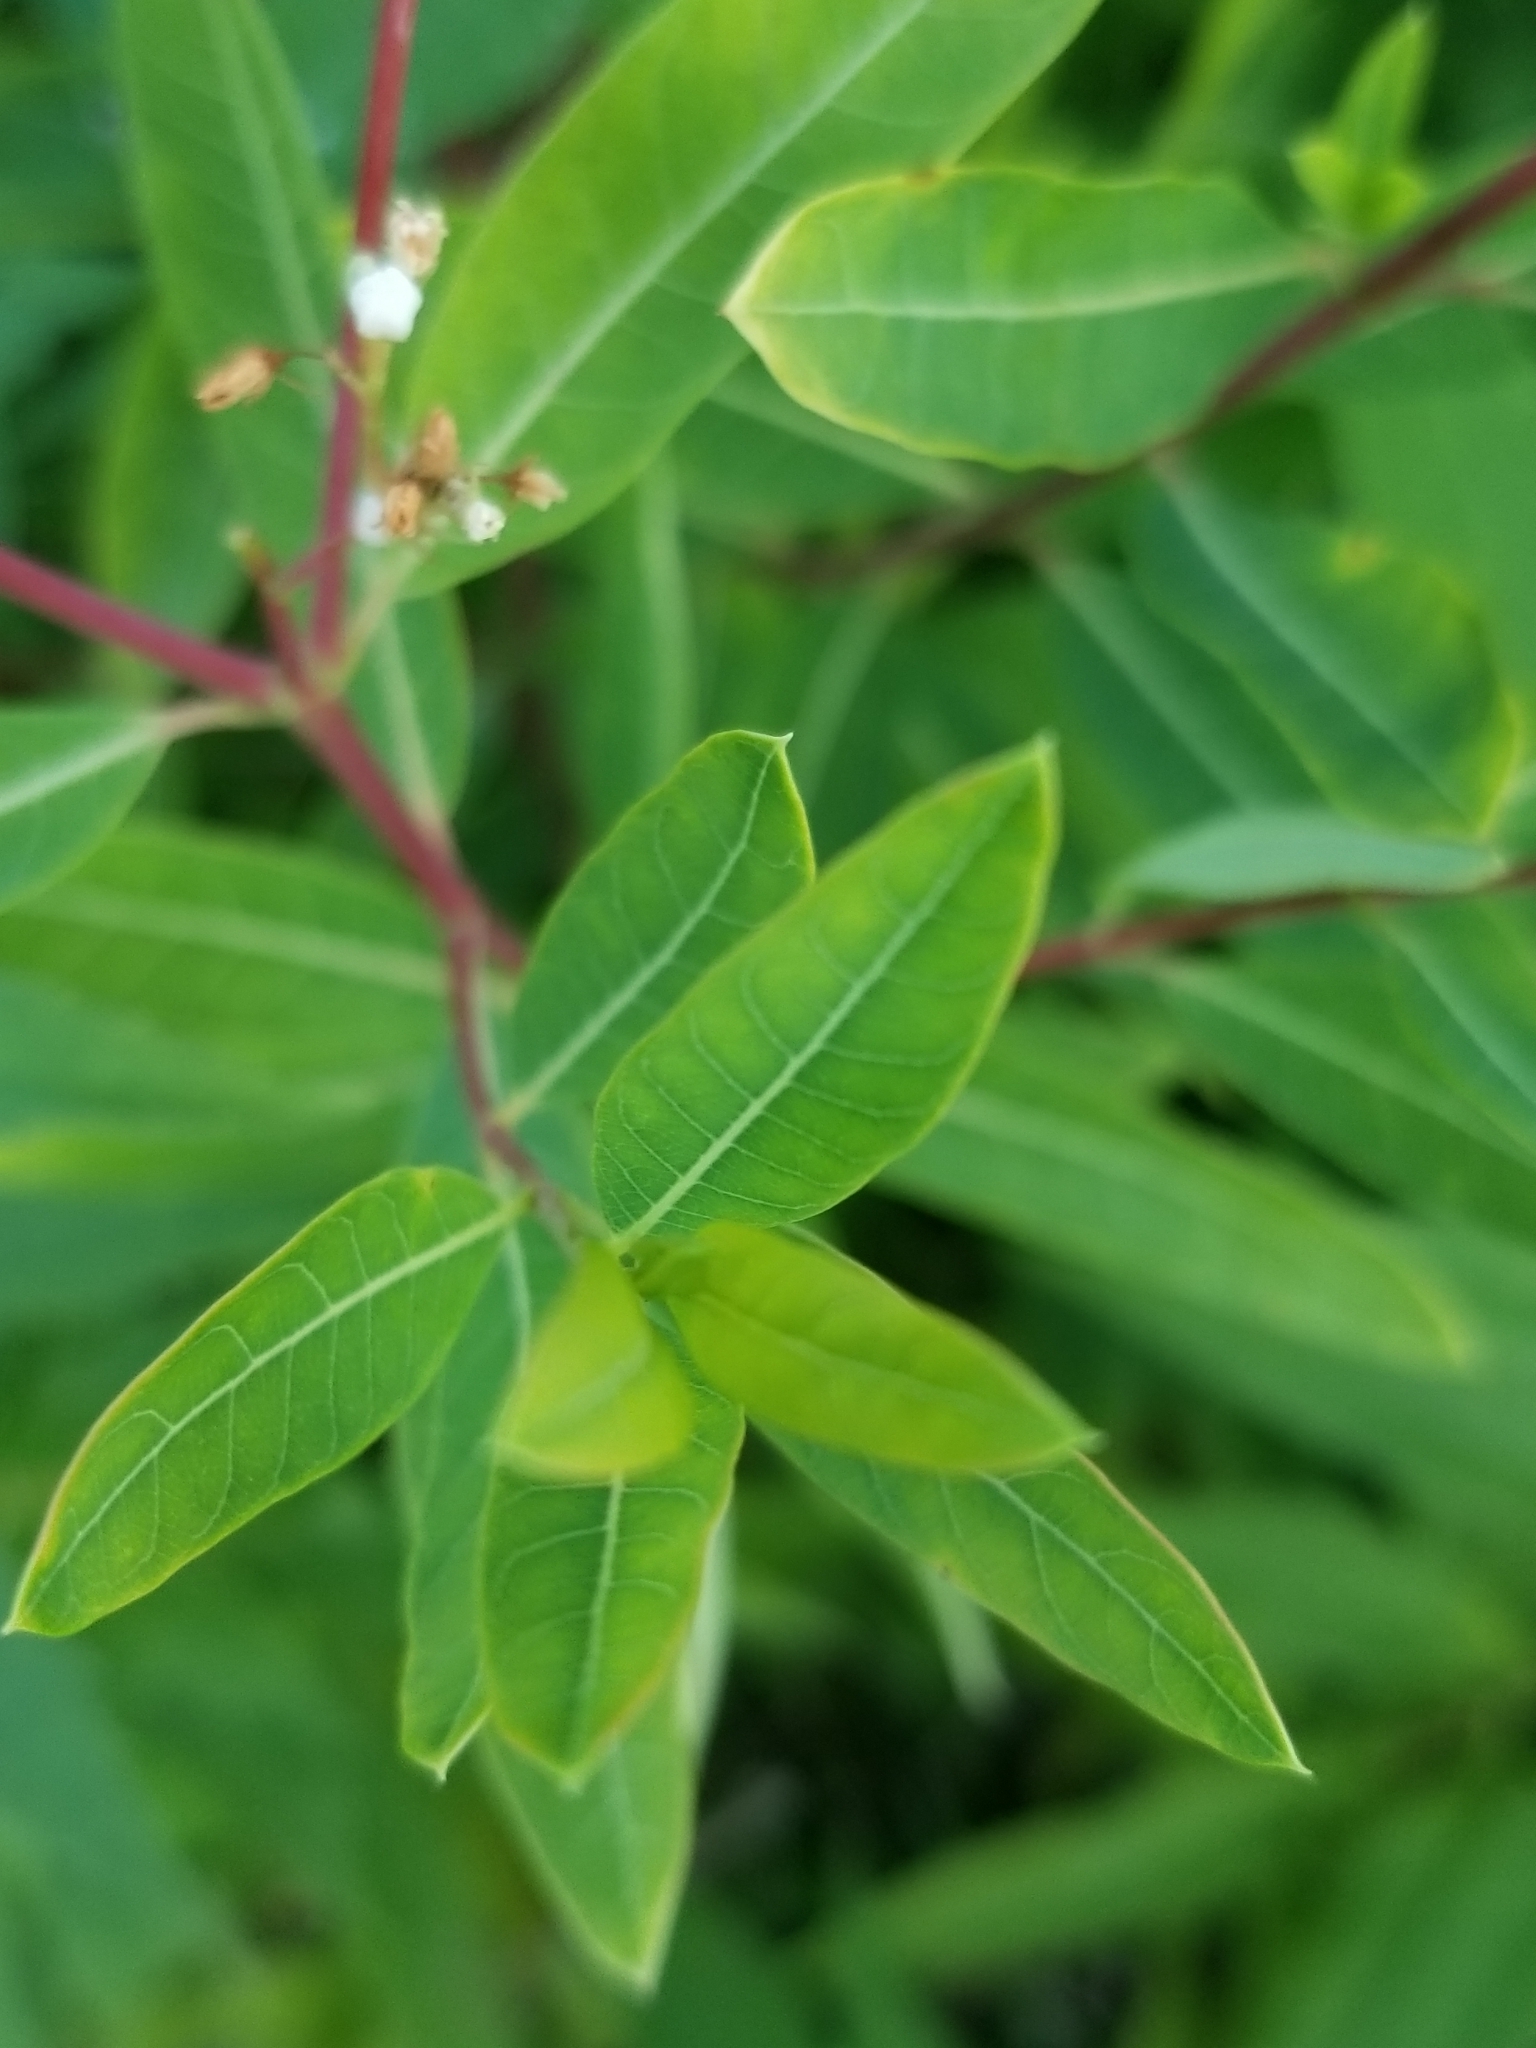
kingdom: Plantae
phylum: Tracheophyta
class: Magnoliopsida
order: Gentianales
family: Apocynaceae
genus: Apocynum
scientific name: Apocynum cannabinum
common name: Hemp dogbane
